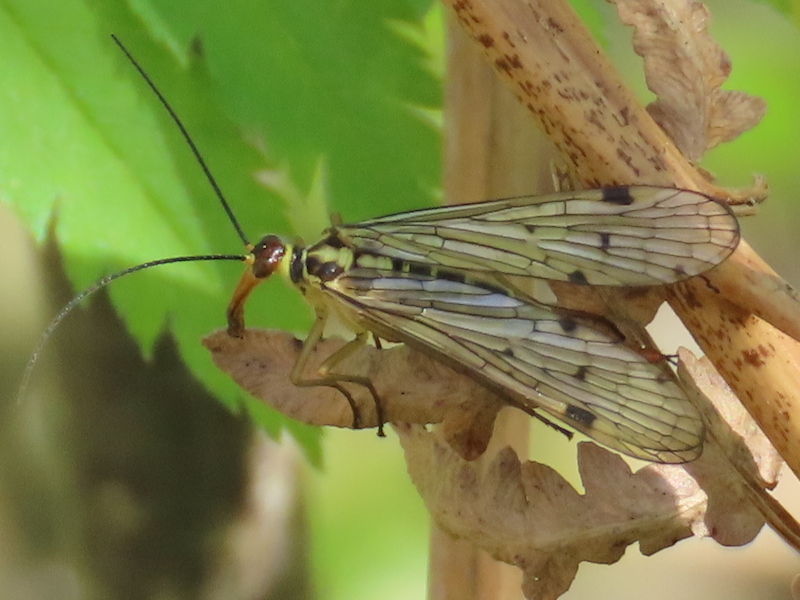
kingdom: Animalia
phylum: Arthropoda
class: Insecta
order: Mecoptera
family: Panorpidae
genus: Panorpa
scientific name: Panorpa germanica
